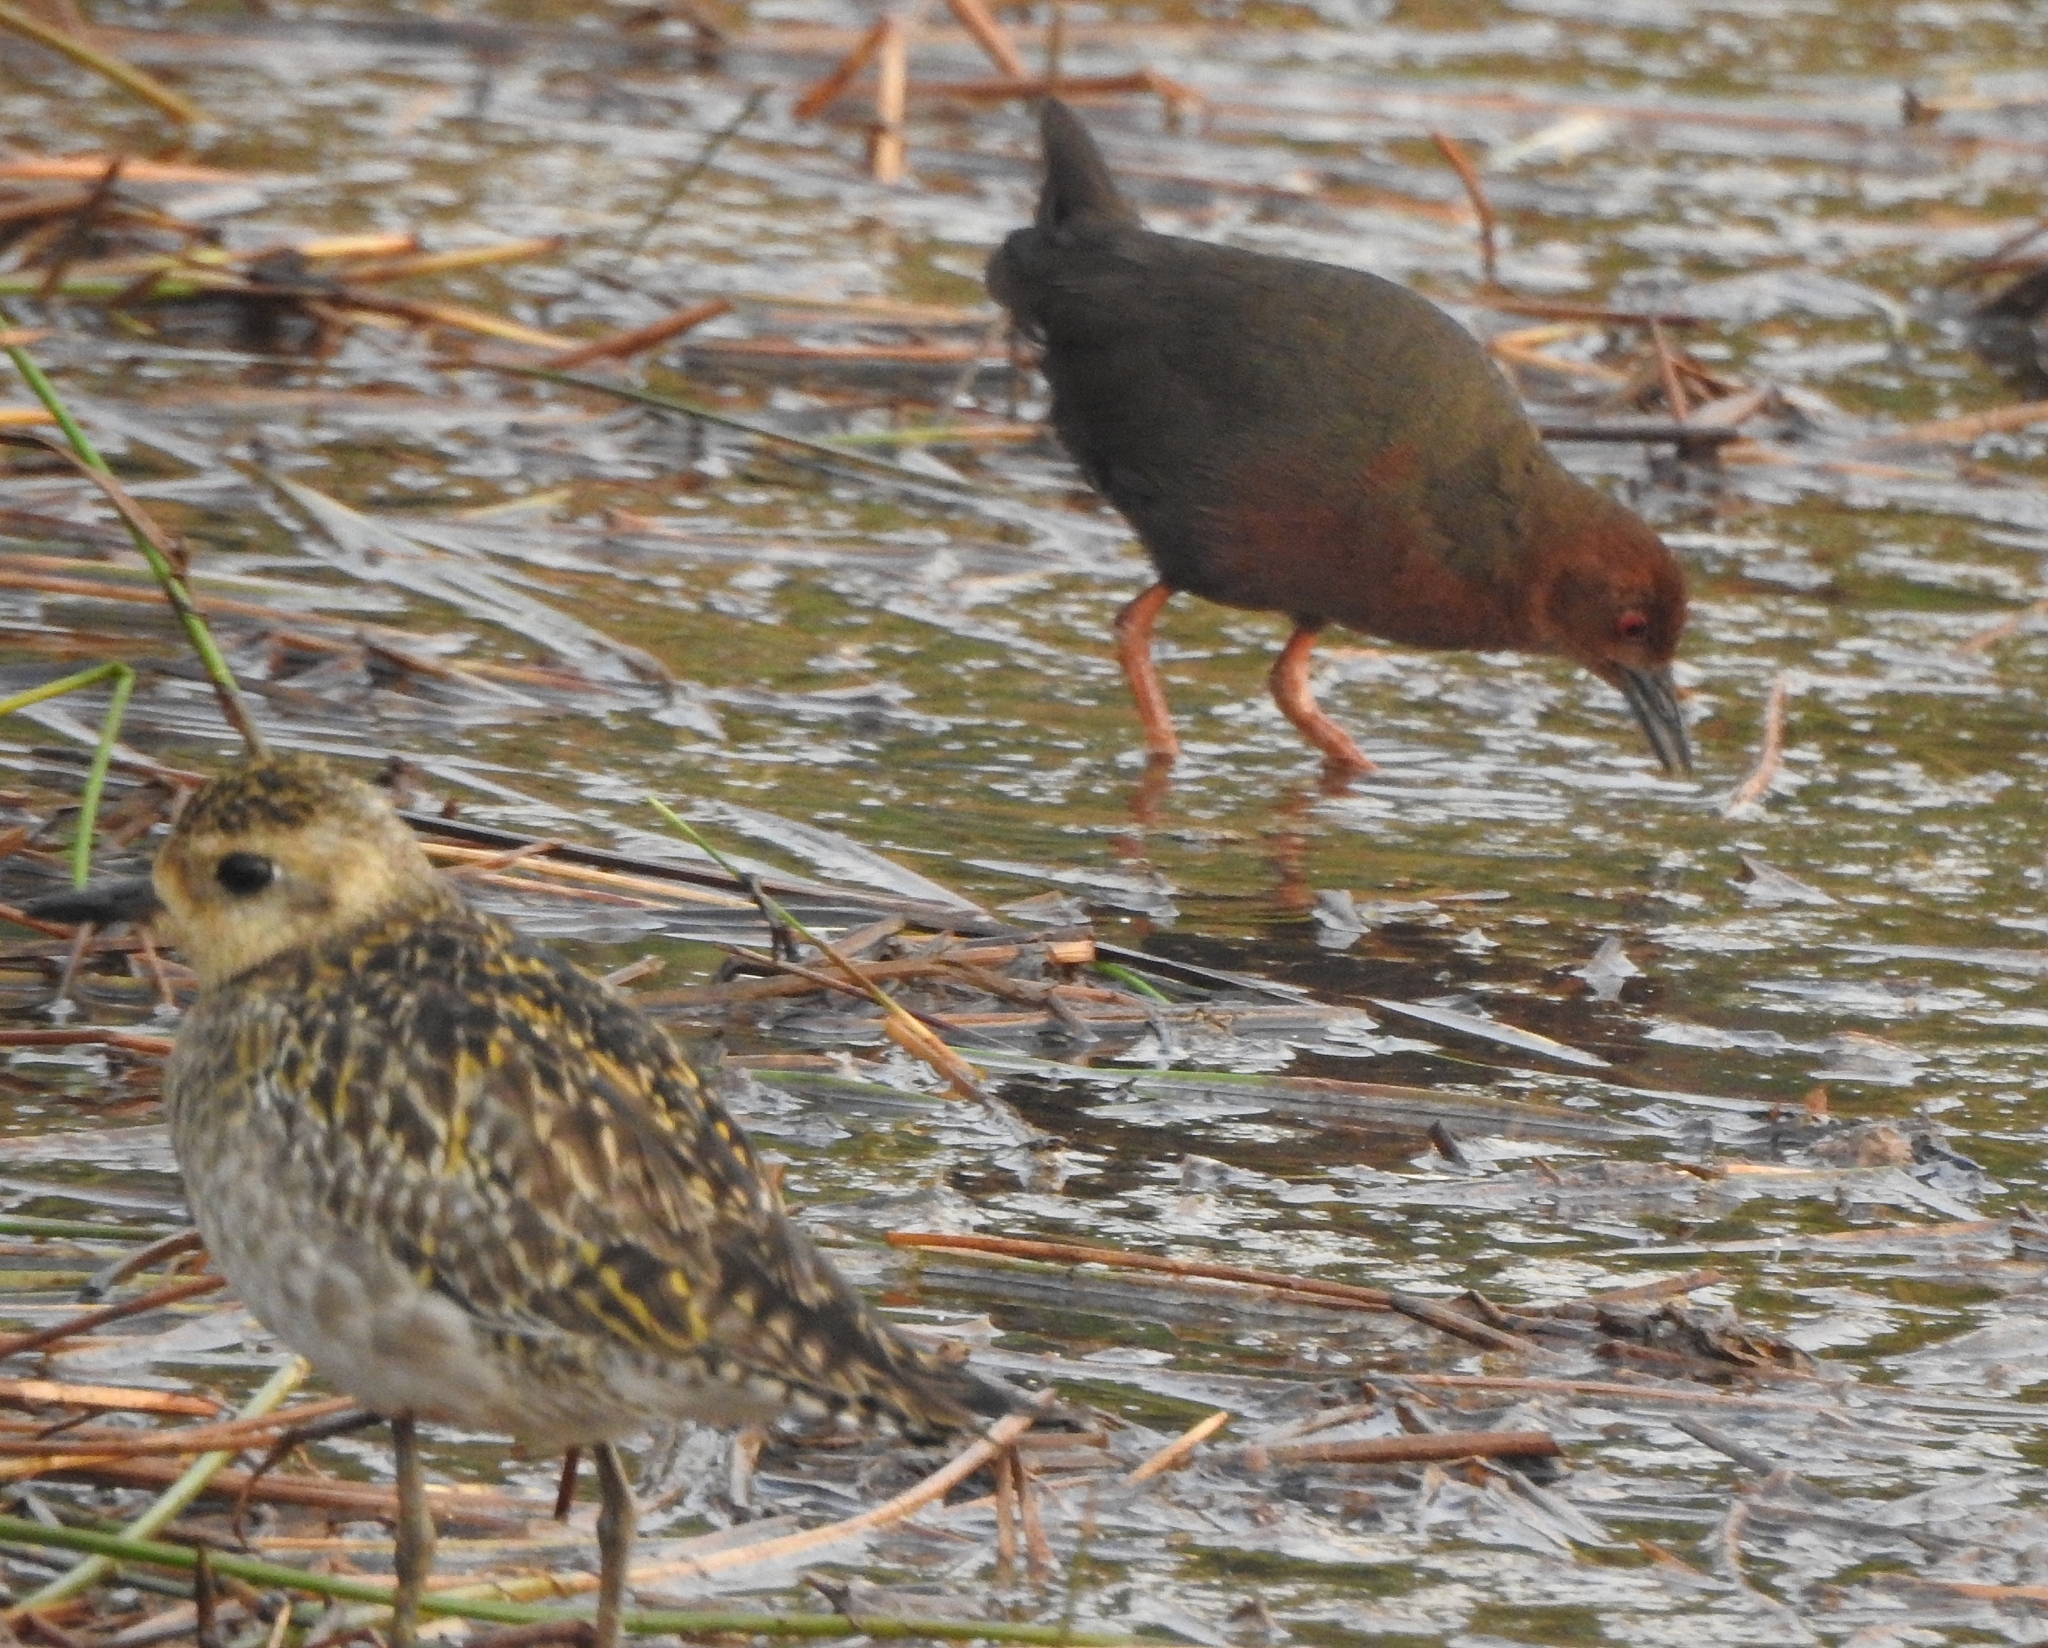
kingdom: Animalia
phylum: Chordata
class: Aves
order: Charadriiformes
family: Charadriidae
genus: Pluvialis
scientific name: Pluvialis fulva
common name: Pacific golden plover
